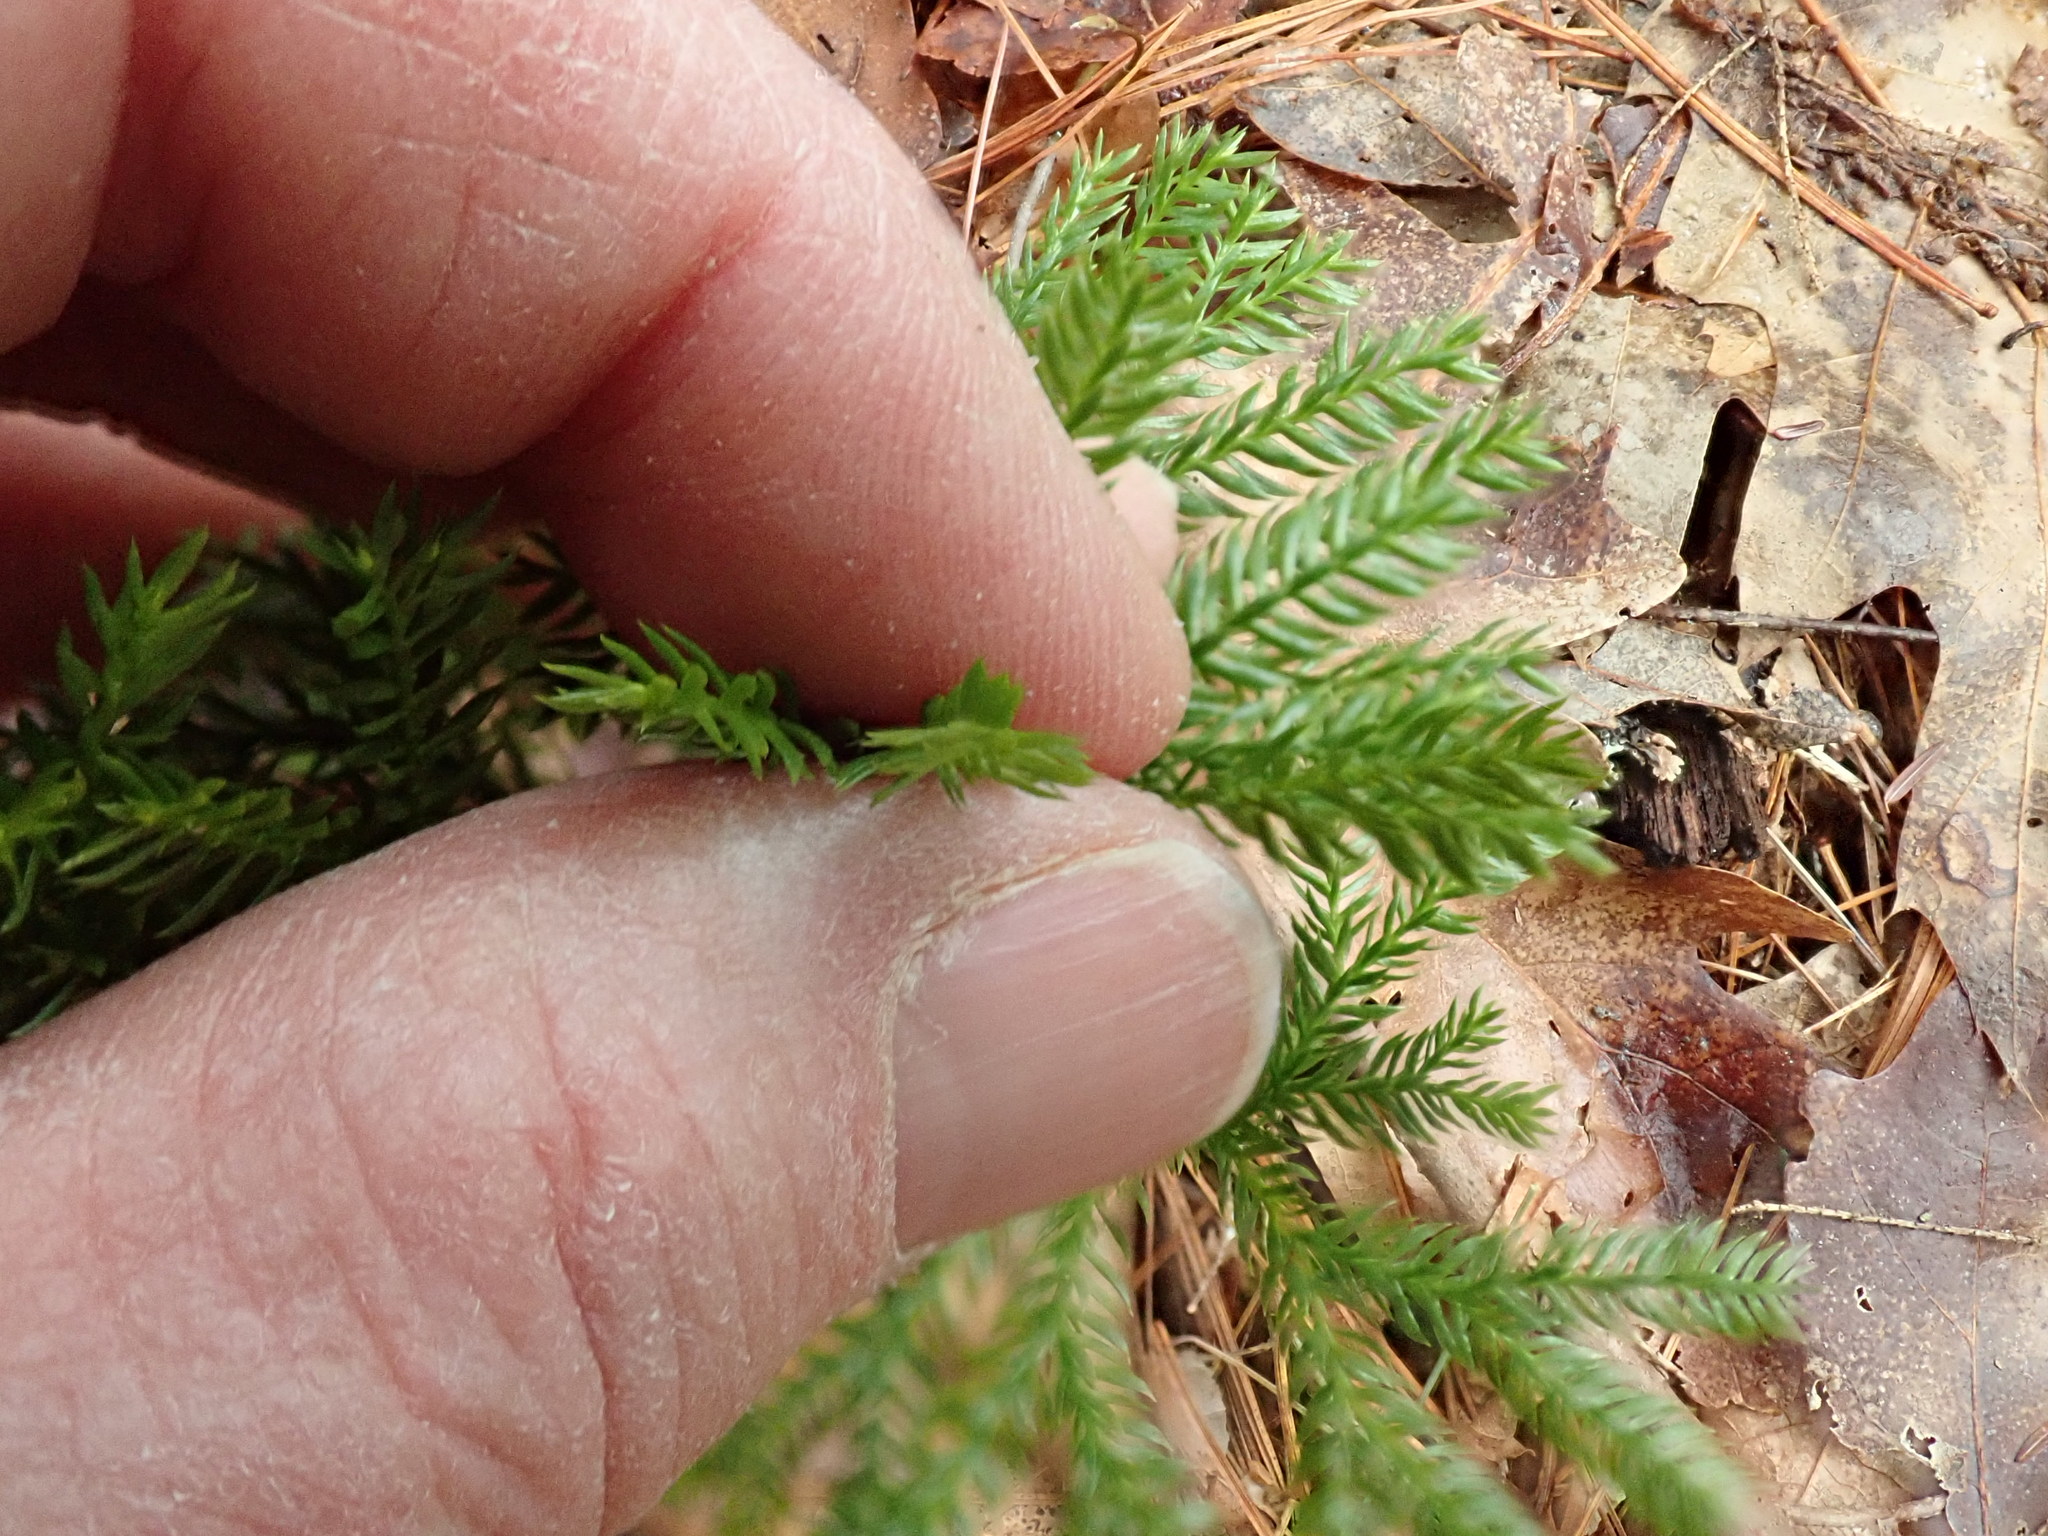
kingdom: Plantae
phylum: Tracheophyta
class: Lycopodiopsida
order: Lycopodiales
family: Lycopodiaceae
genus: Dendrolycopodium
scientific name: Dendrolycopodium obscurum
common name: Common ground-pine
